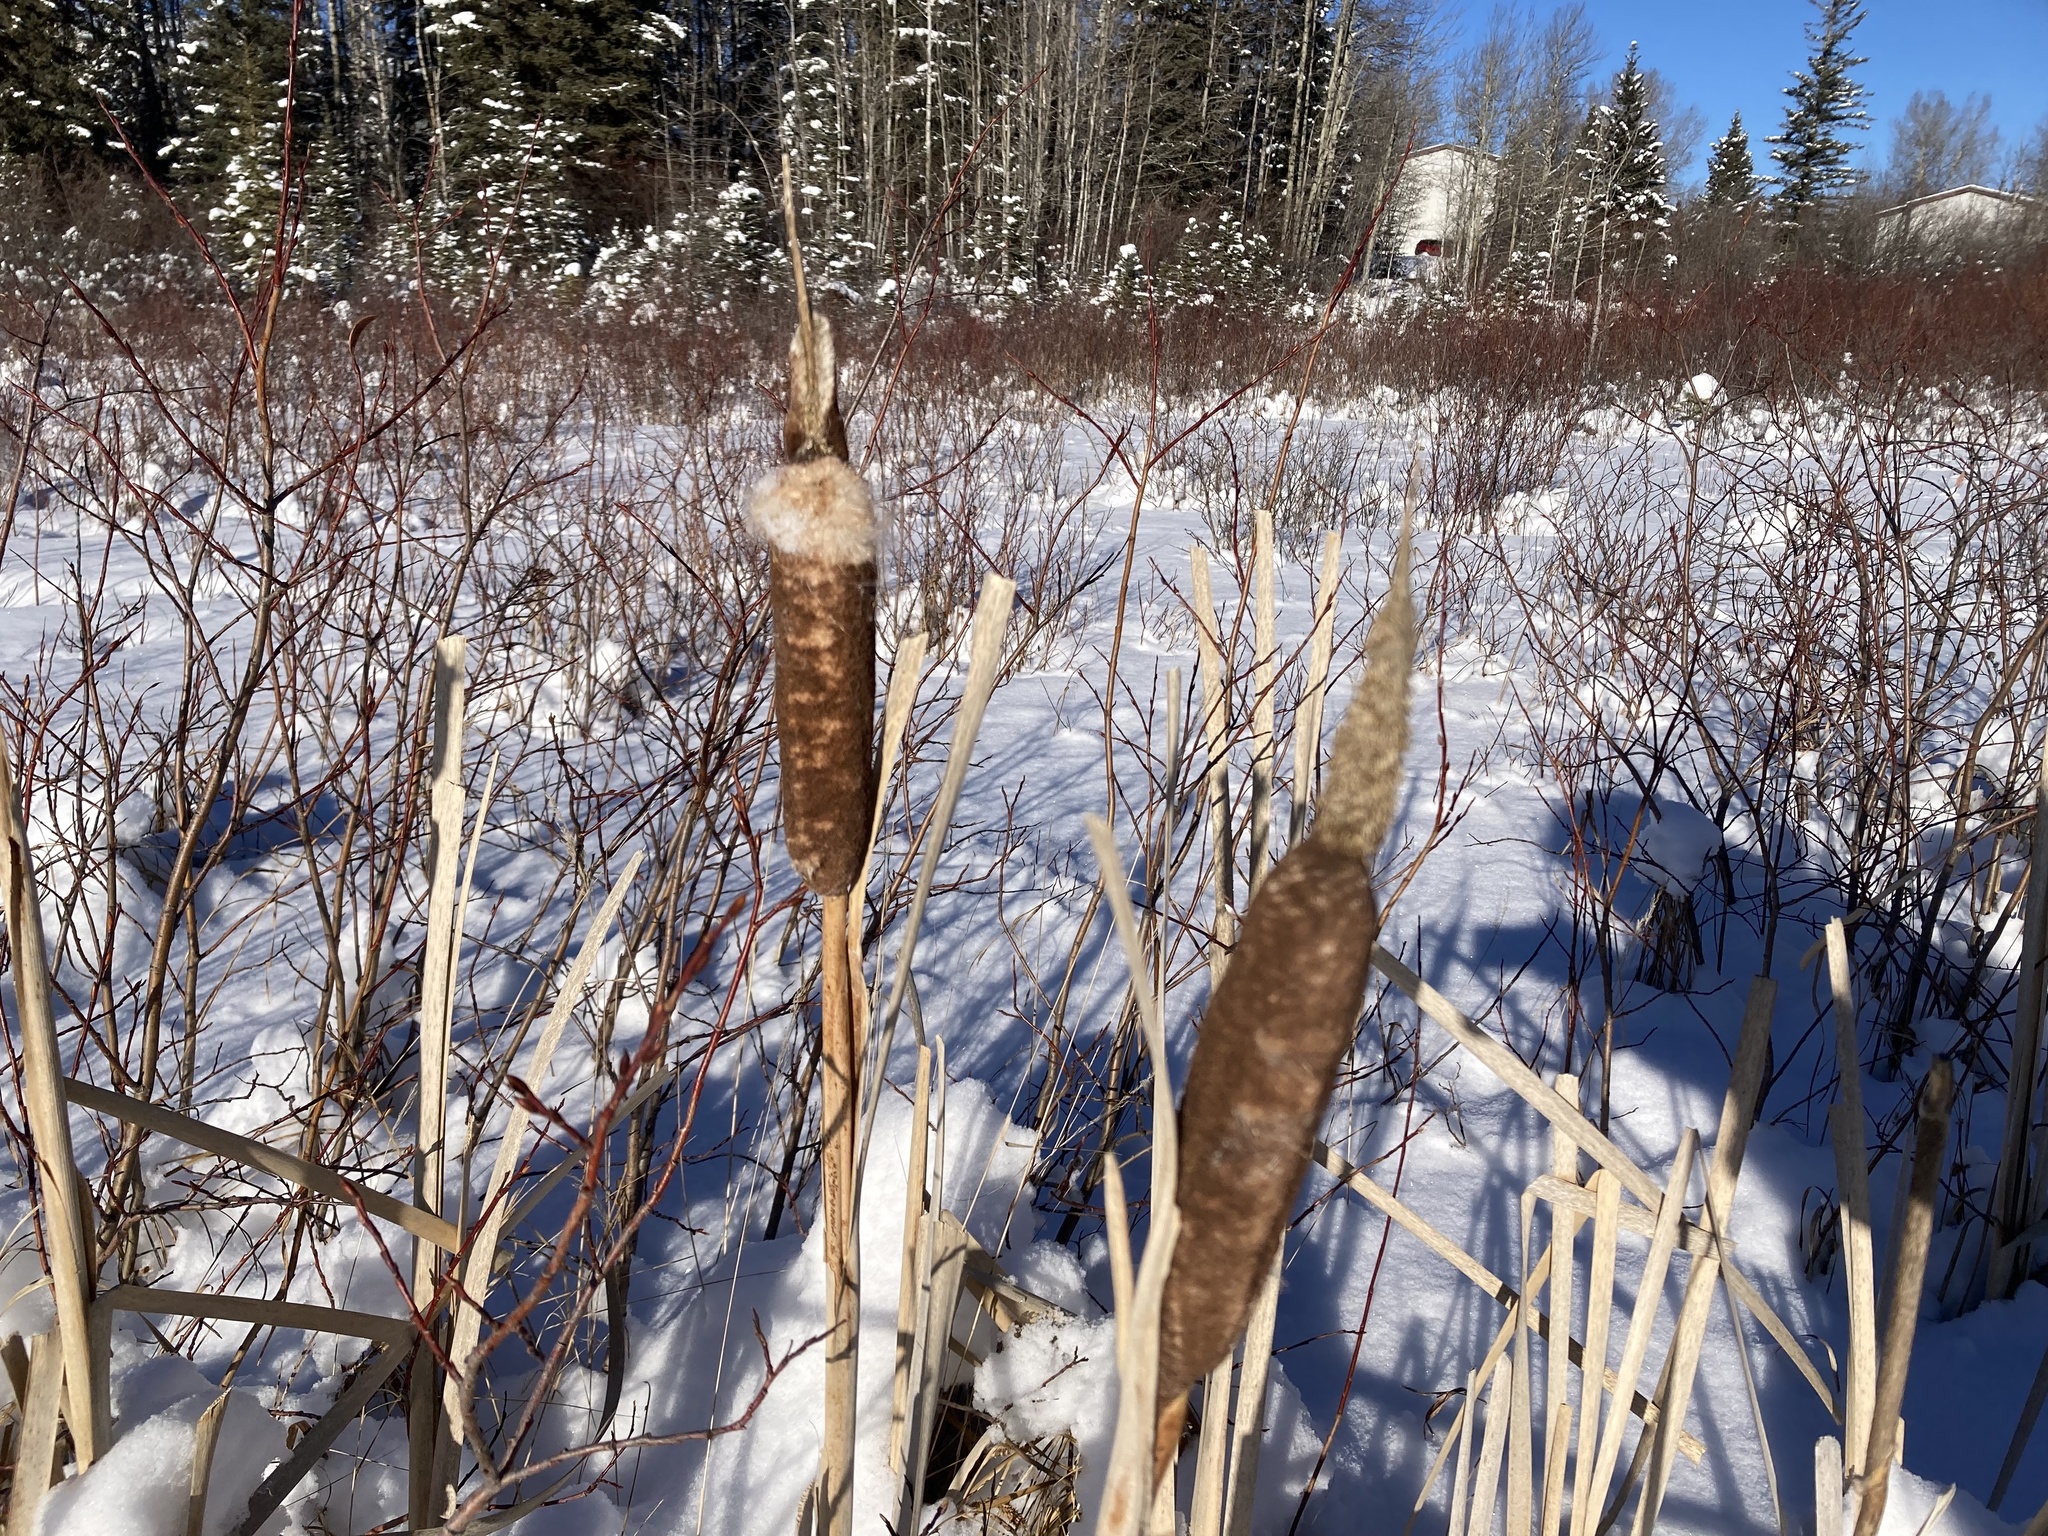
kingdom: Plantae
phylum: Tracheophyta
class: Liliopsida
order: Poales
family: Typhaceae
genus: Typha
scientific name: Typha latifolia
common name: Broadleaf cattail
